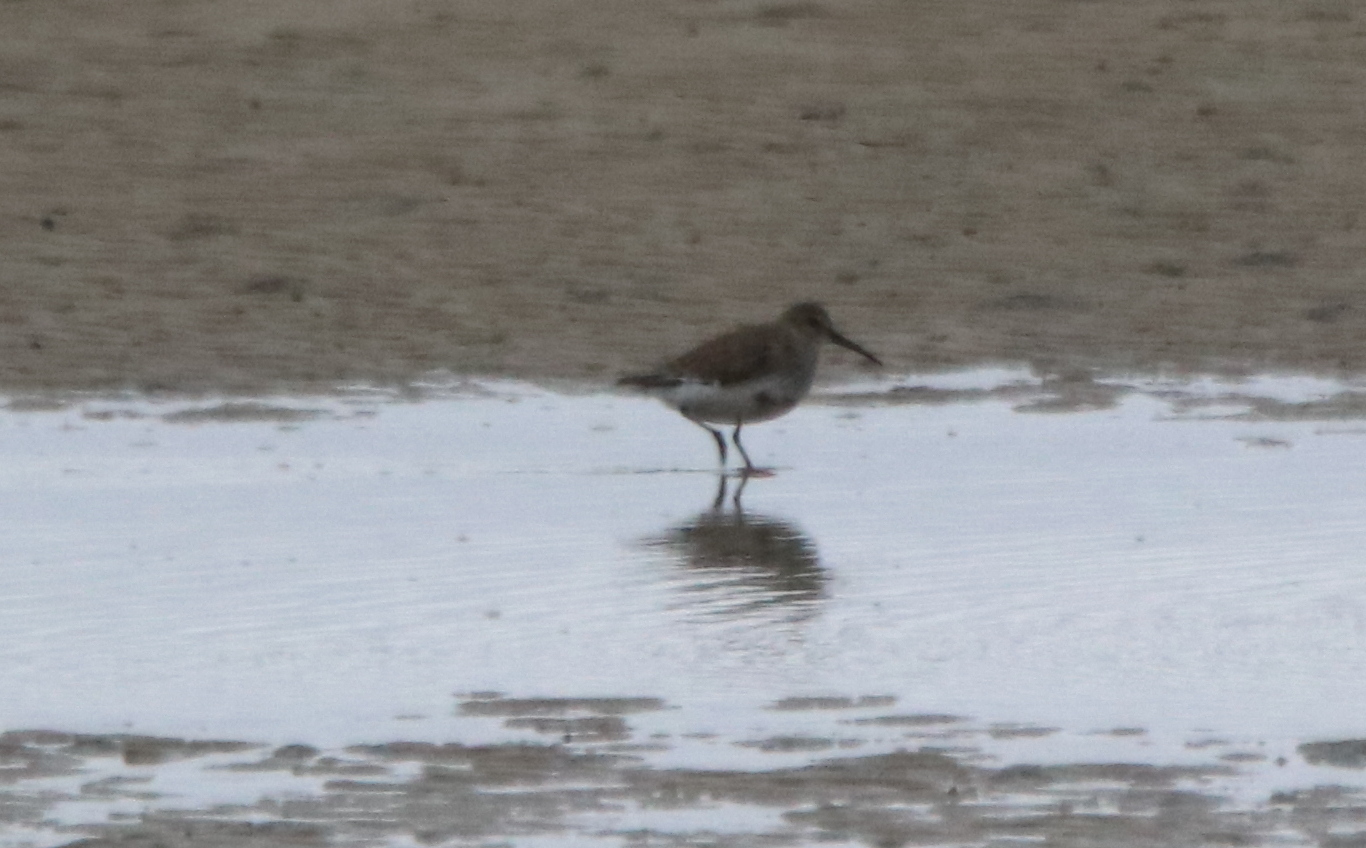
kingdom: Animalia
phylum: Chordata
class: Aves
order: Charadriiformes
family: Scolopacidae
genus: Calidris
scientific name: Calidris alpina
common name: Dunlin
